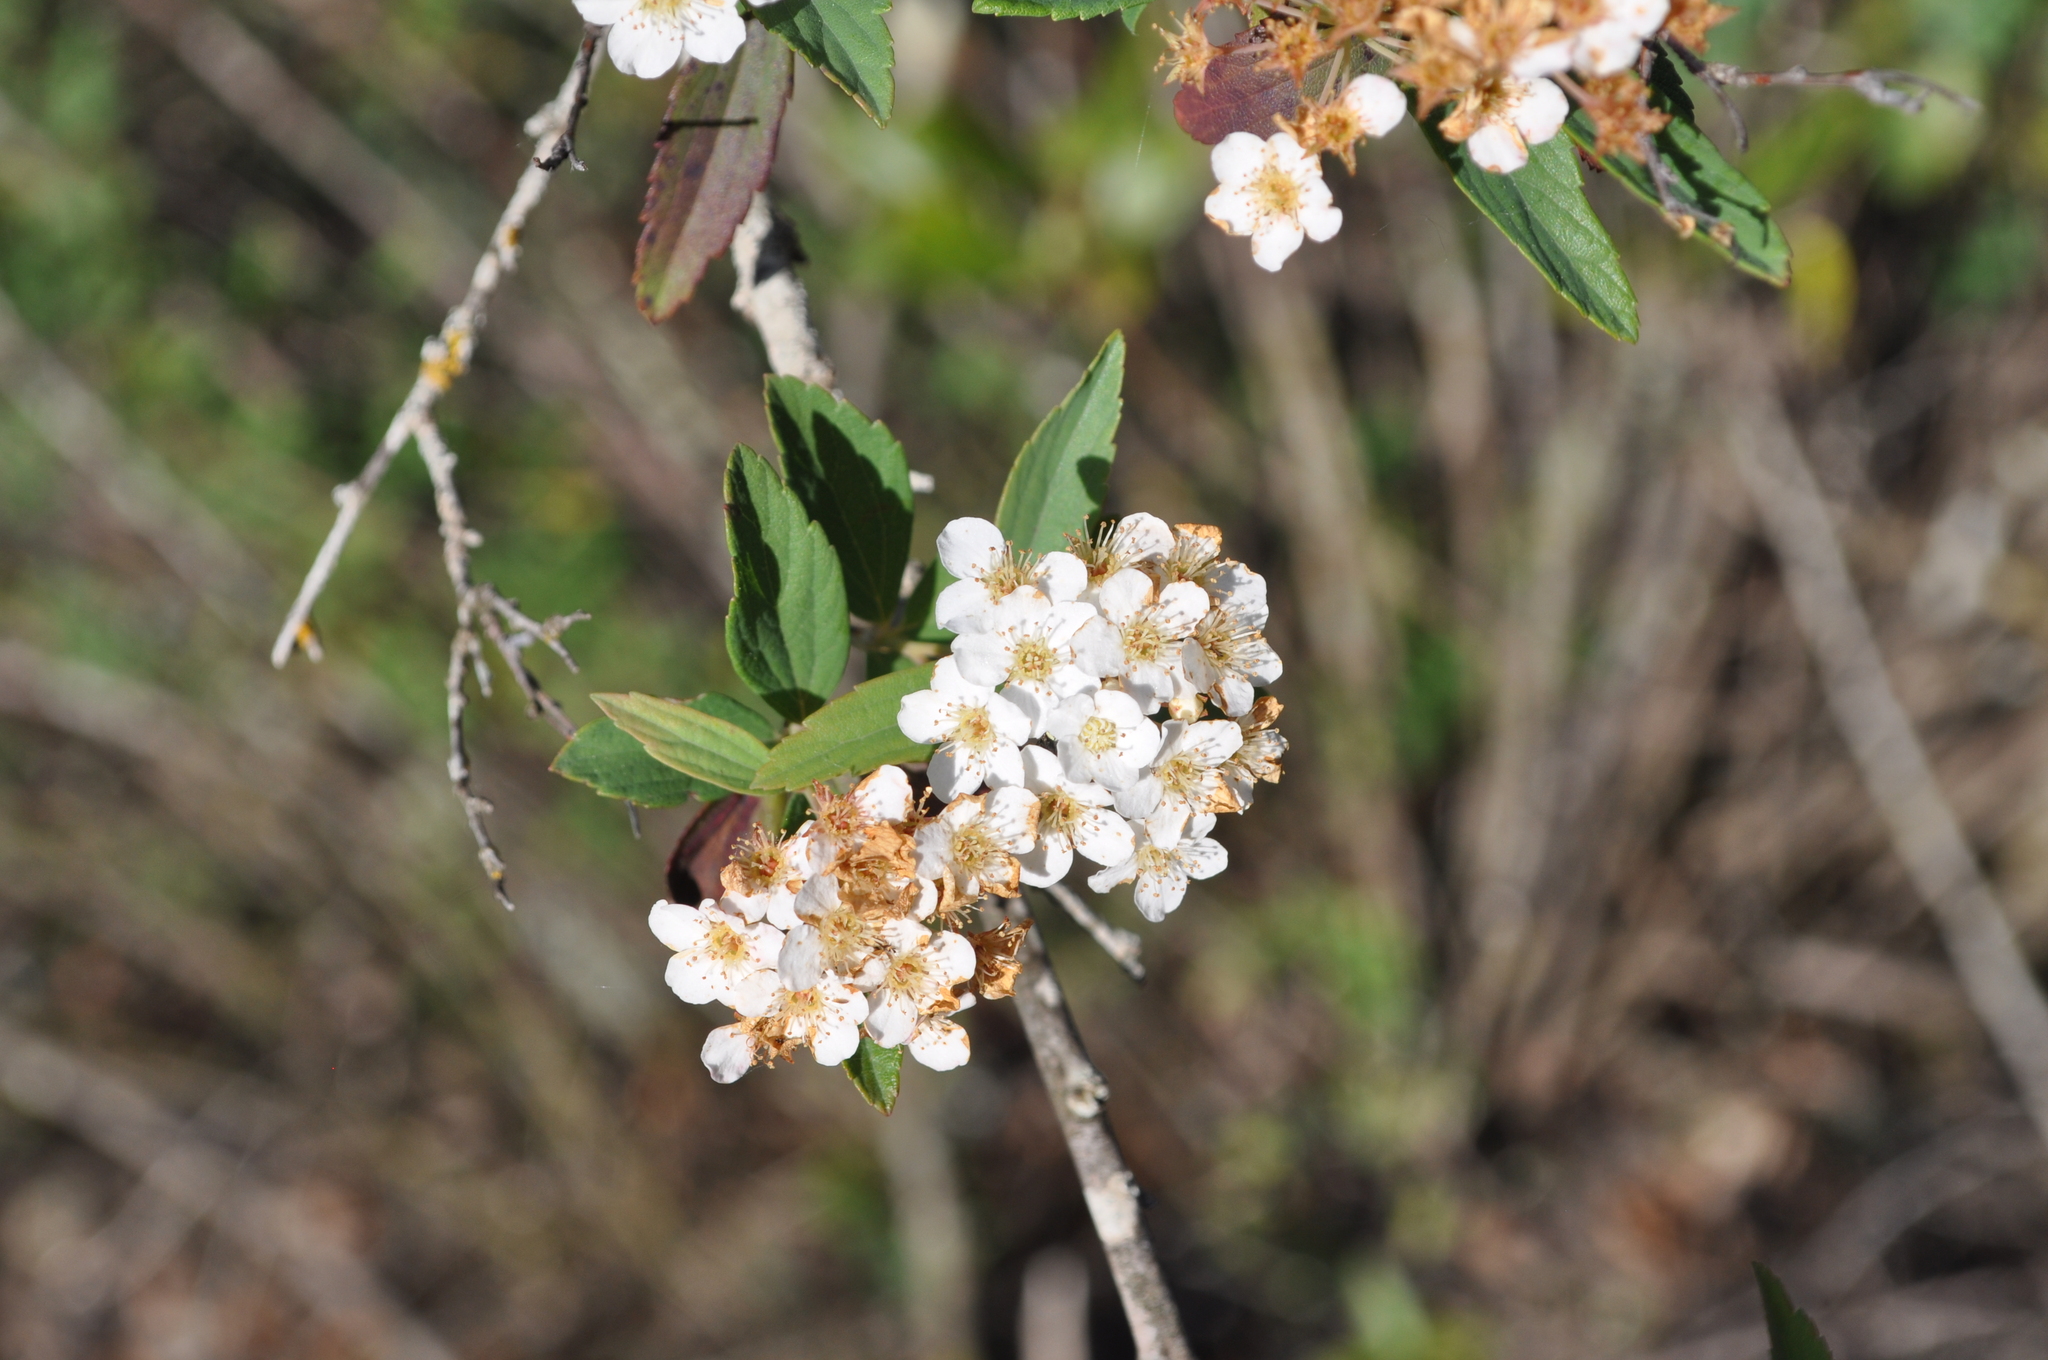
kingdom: Plantae
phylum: Tracheophyta
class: Magnoliopsida
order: Rosales
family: Rosaceae
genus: Spiraea
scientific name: Spiraea cantoniensis
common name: Reeves' meadowsweet
